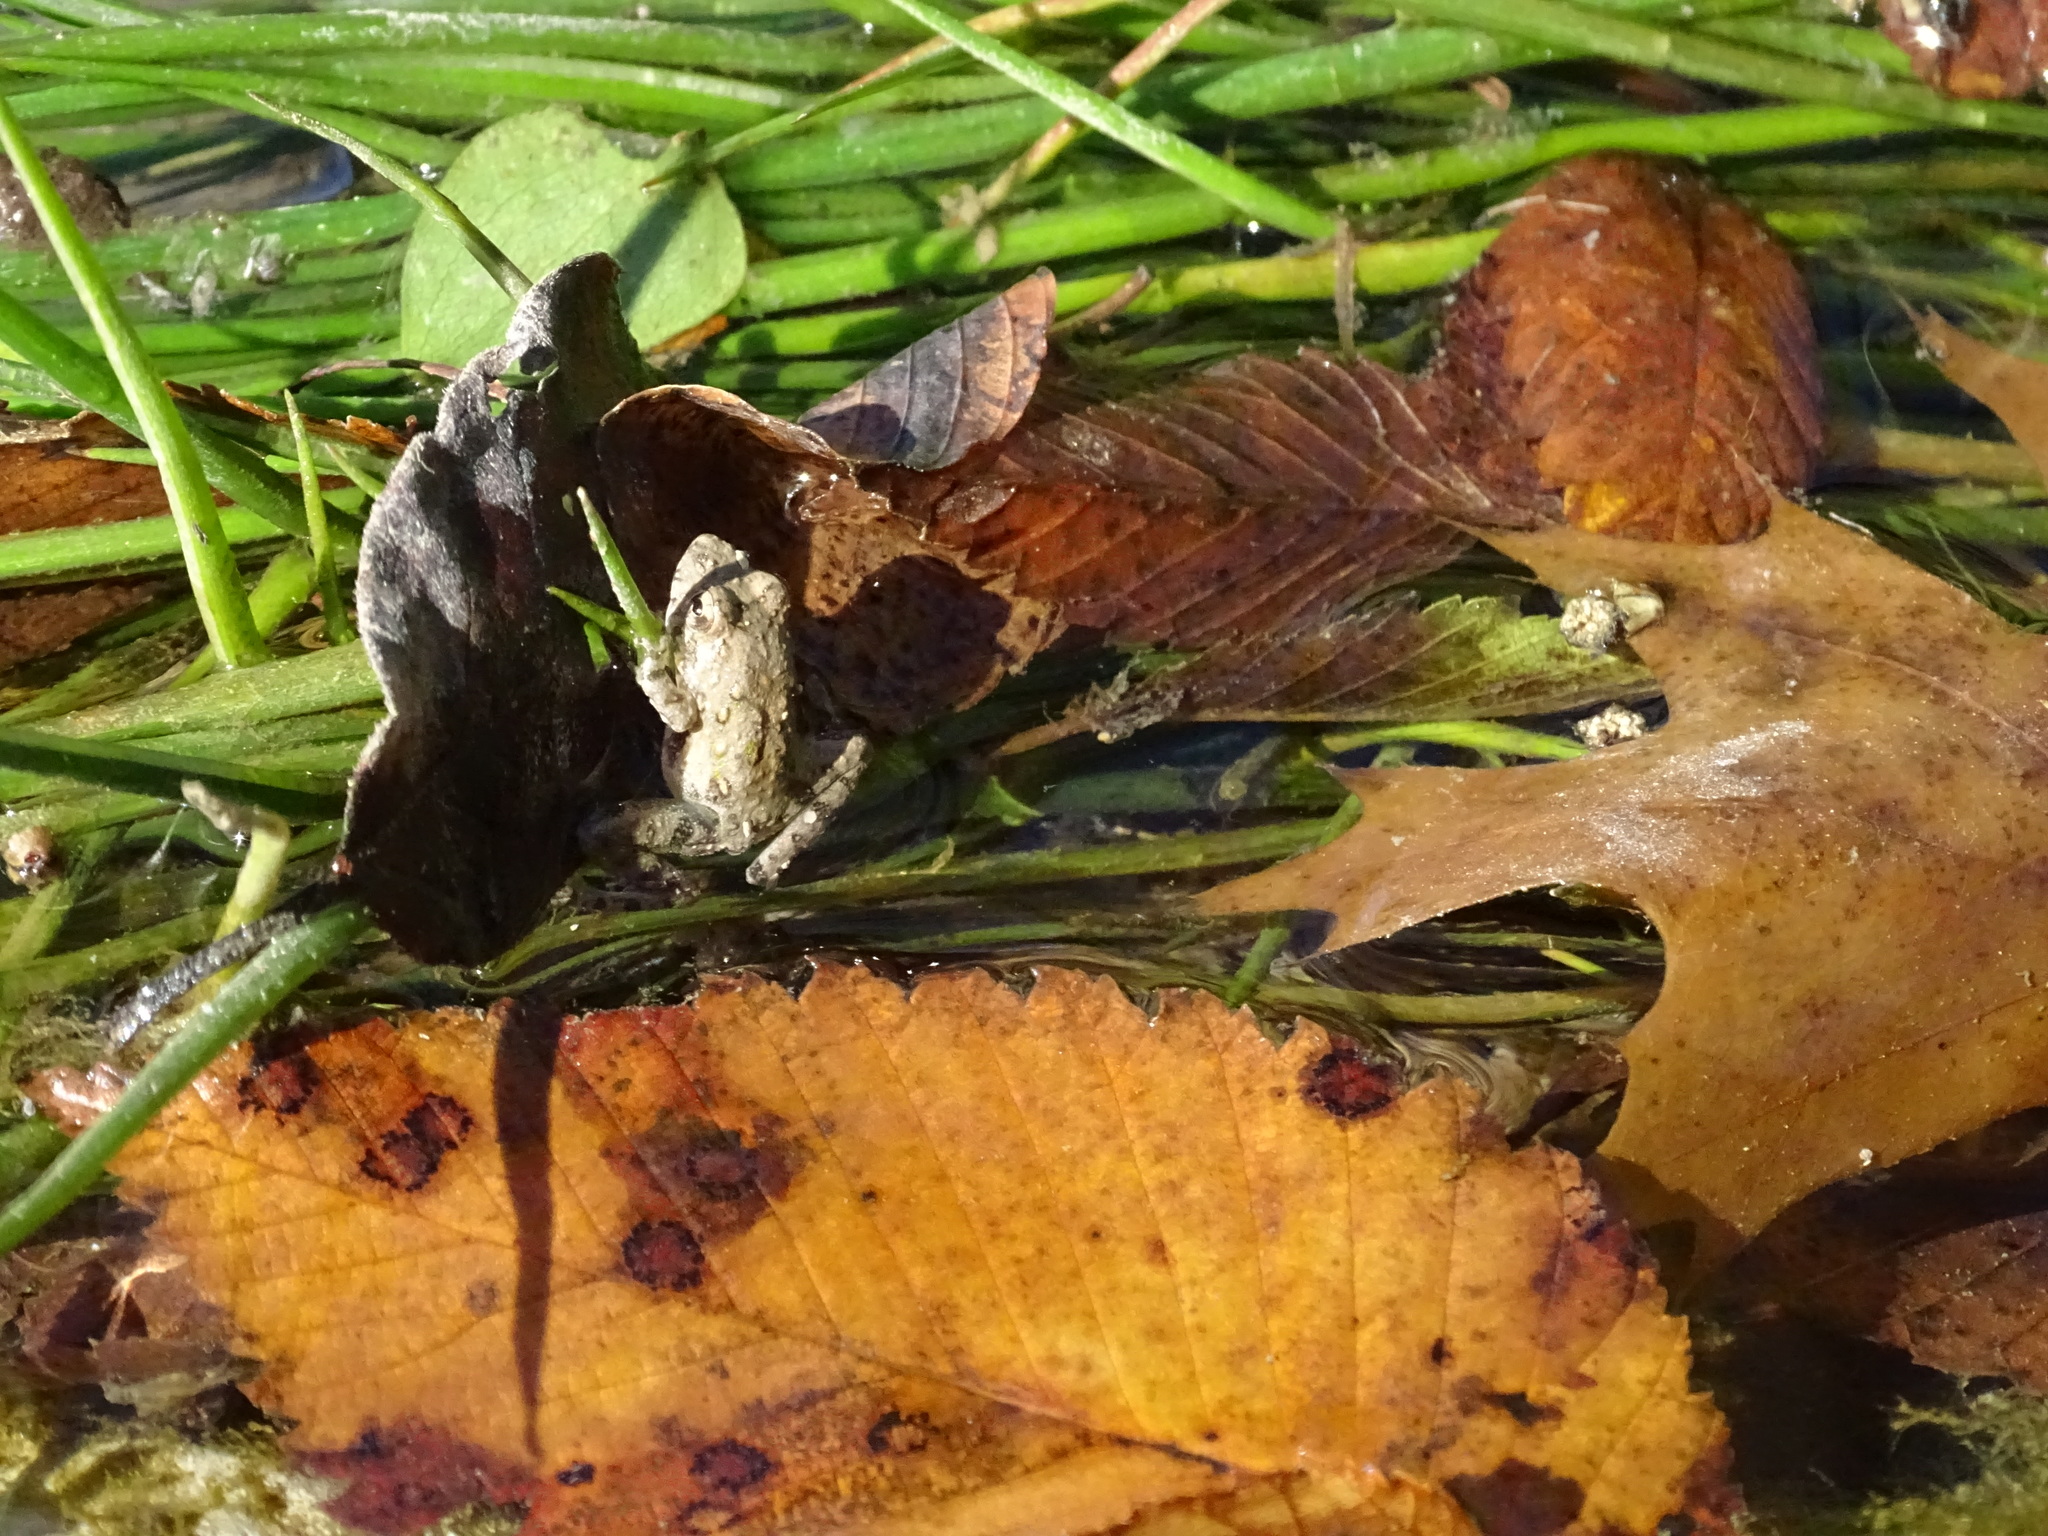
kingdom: Animalia
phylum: Chordata
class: Amphibia
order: Anura
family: Hylidae
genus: Acris
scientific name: Acris blanchardi
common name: Blanchard's cricket frog
